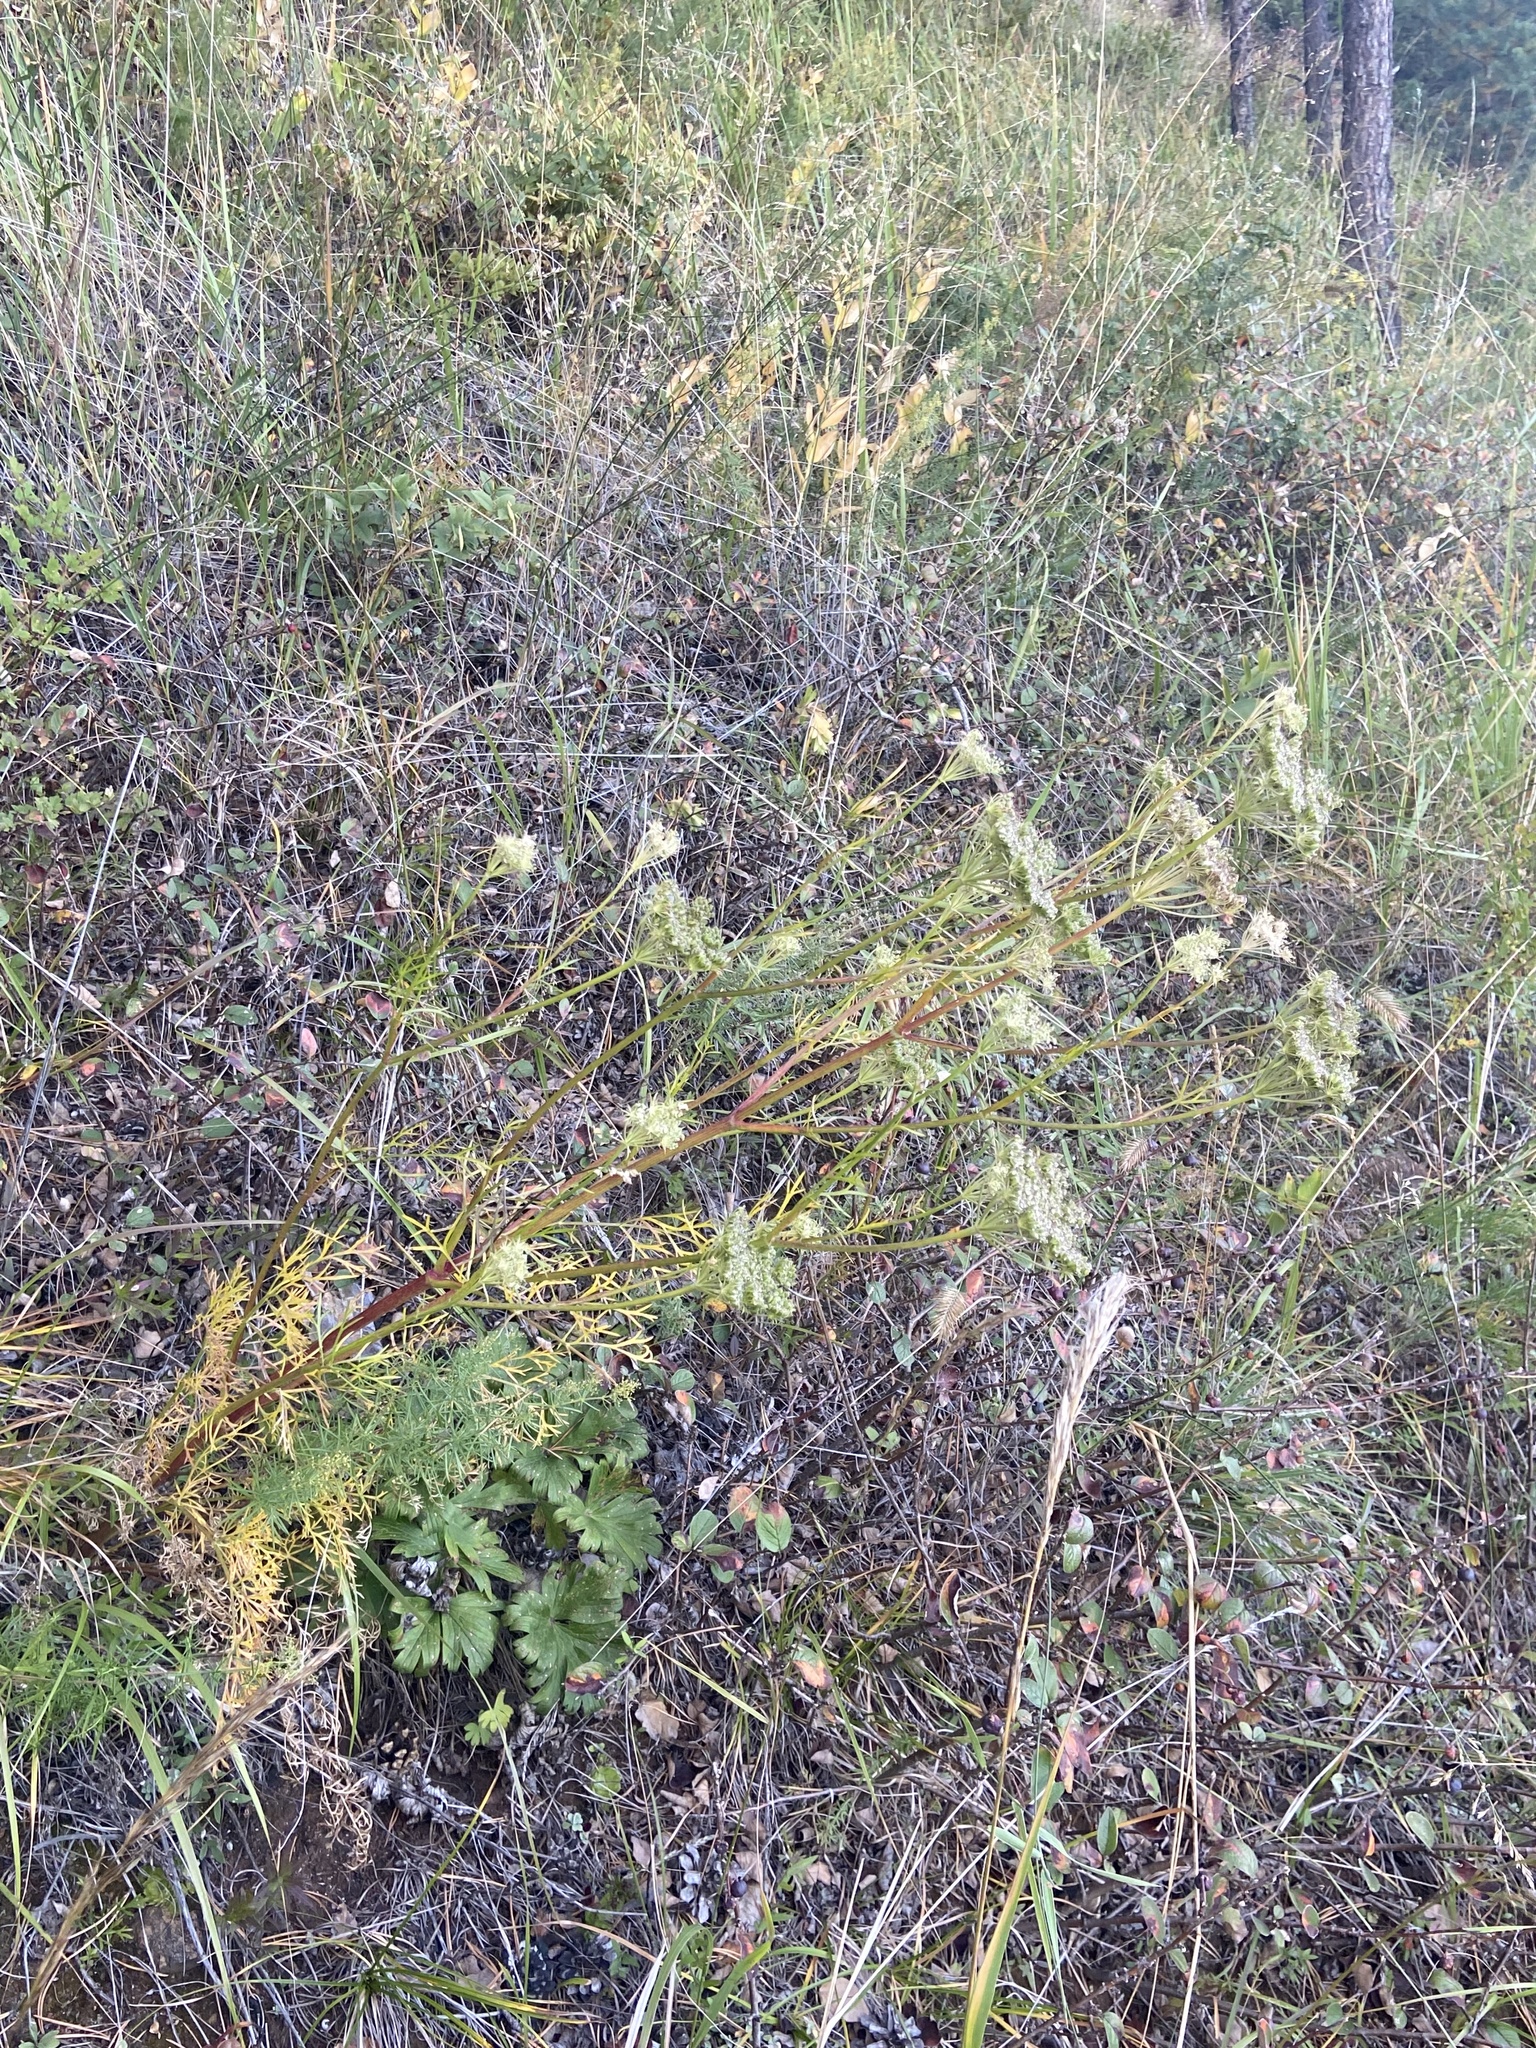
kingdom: Plantae
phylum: Tracheophyta
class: Magnoliopsida
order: Apiales
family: Apiaceae
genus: Kitagawia
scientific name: Kitagawia baicalensis
